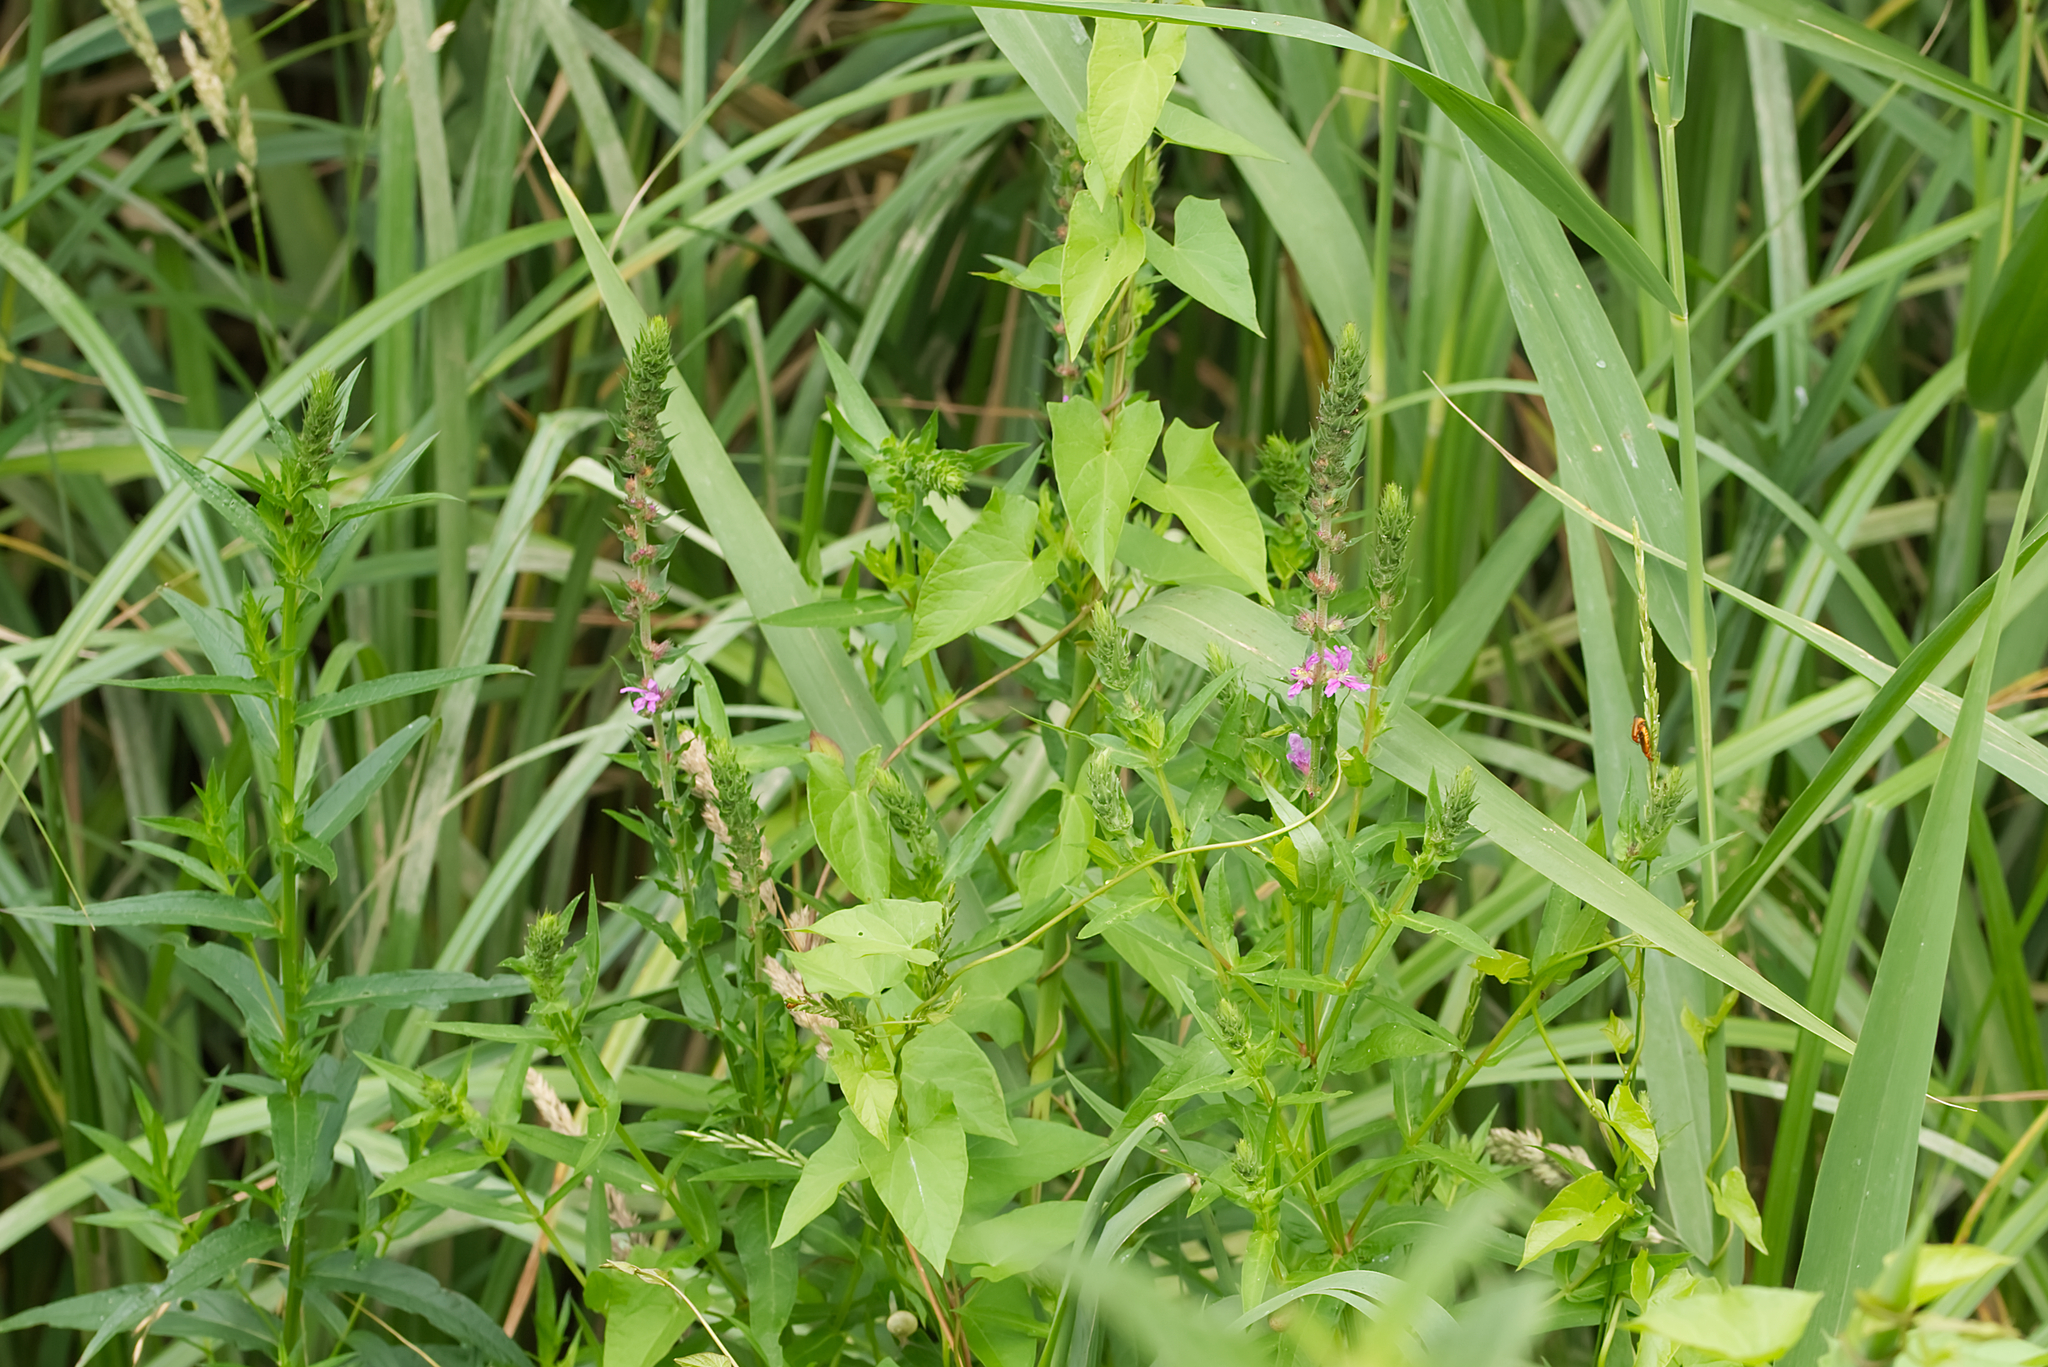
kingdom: Plantae
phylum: Tracheophyta
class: Magnoliopsida
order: Myrtales
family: Lythraceae
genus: Lythrum
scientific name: Lythrum salicaria
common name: Purple loosestrife
